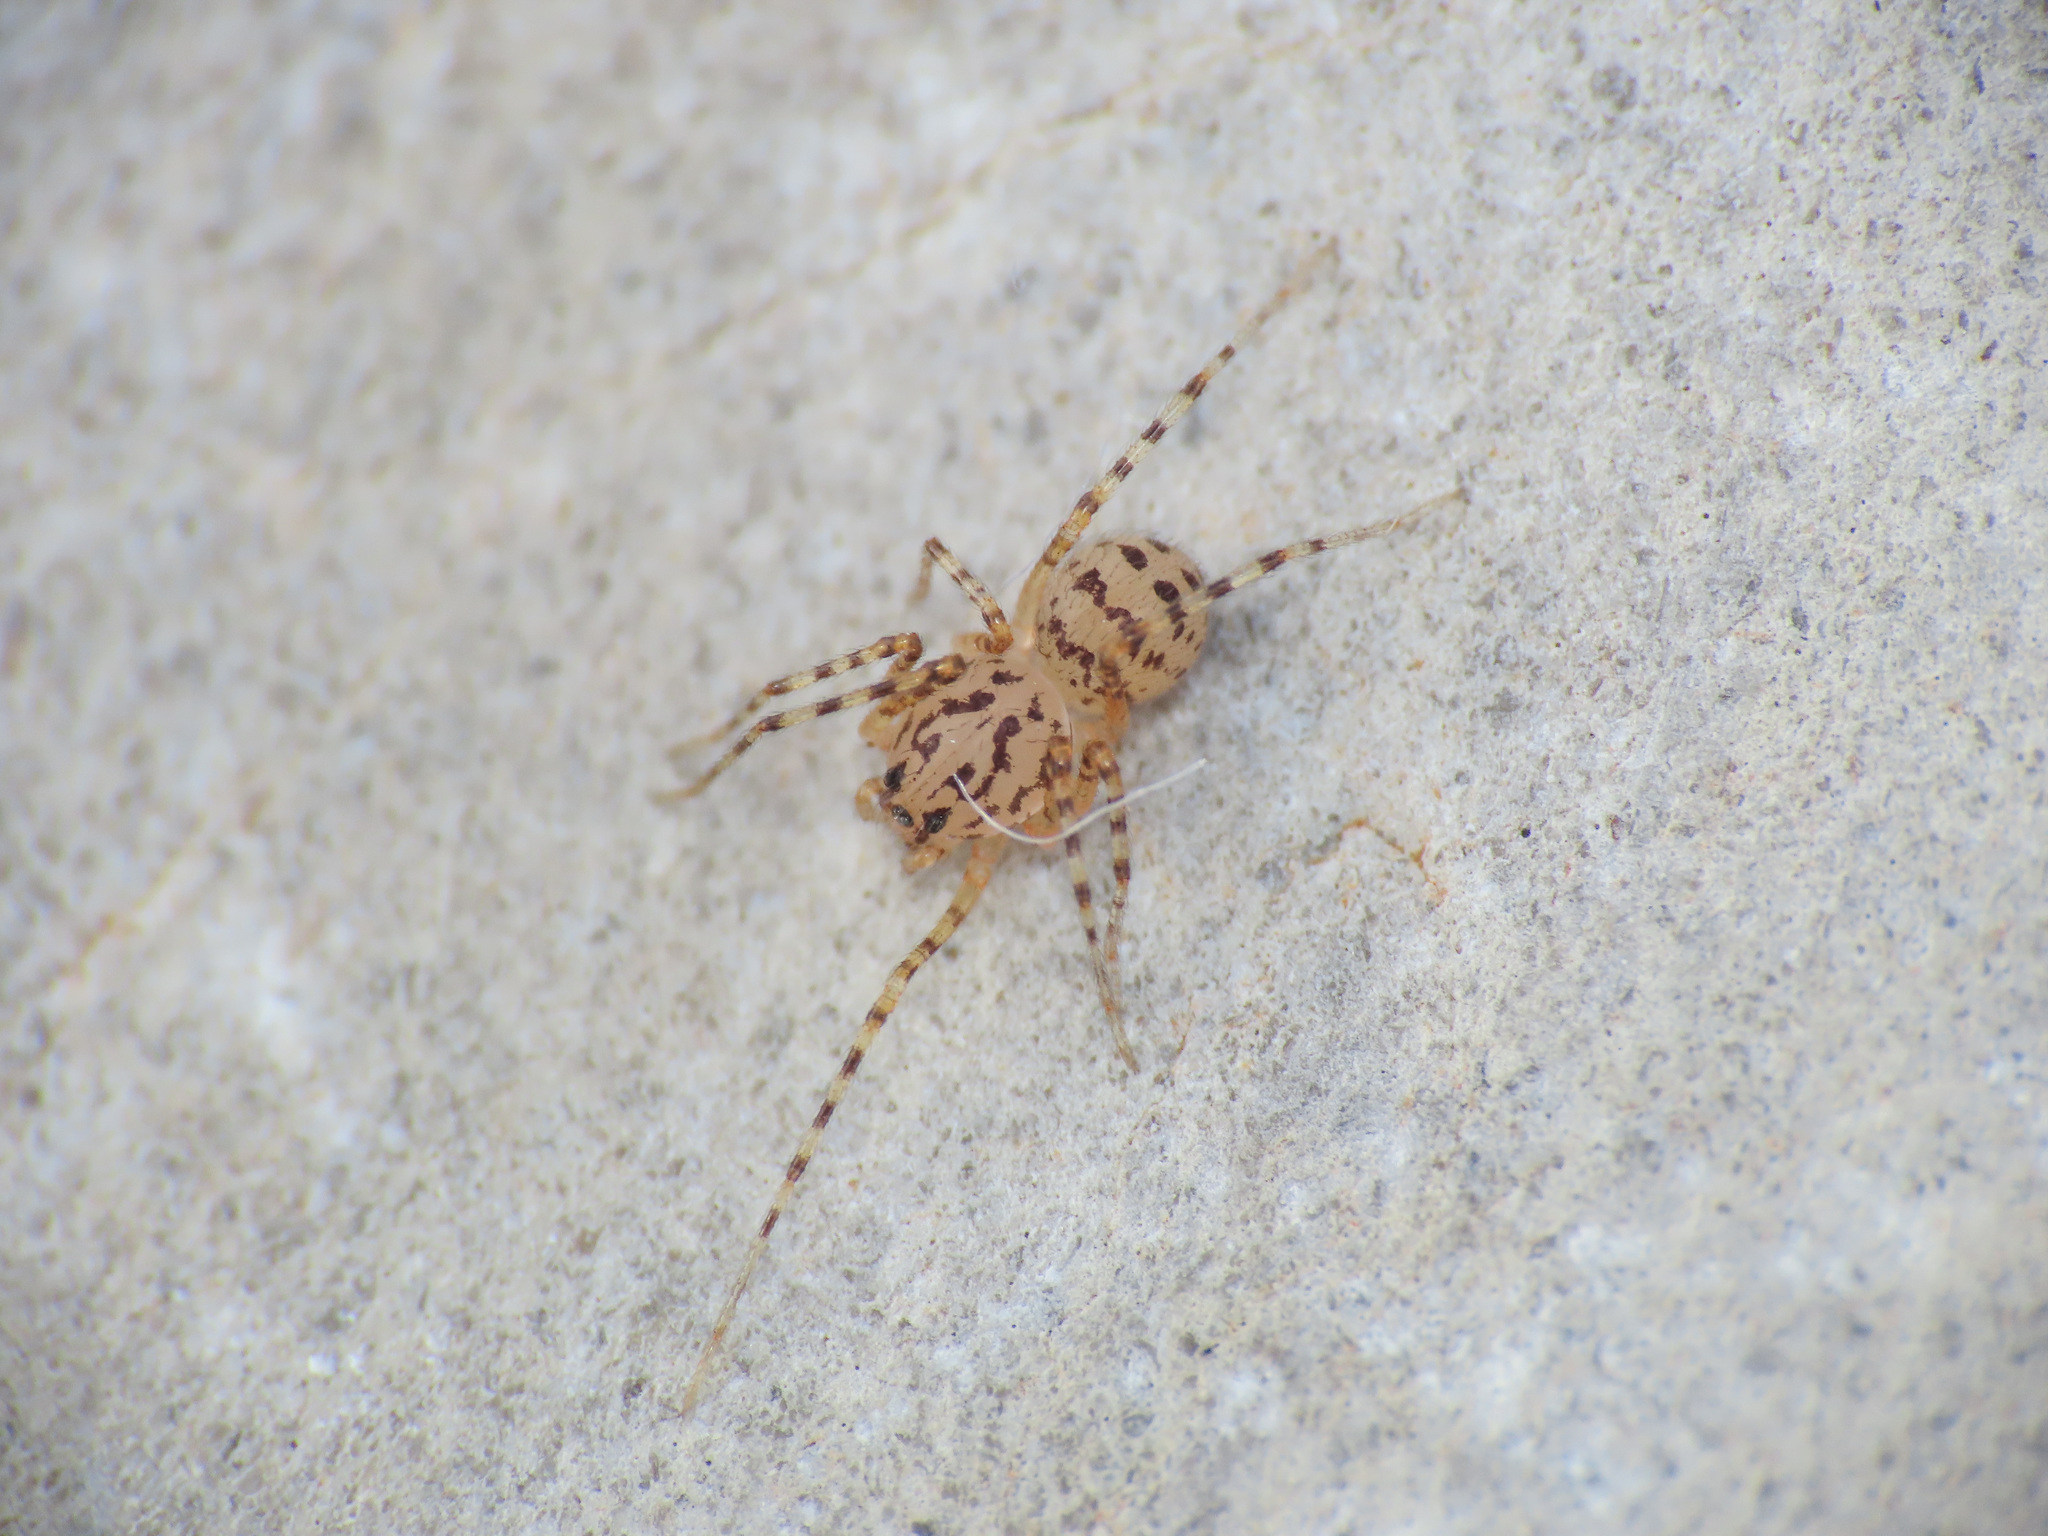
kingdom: Animalia
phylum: Arthropoda
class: Arachnida
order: Araneae
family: Scytodidae
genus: Scytodes
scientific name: Scytodes thoracica
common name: Spitting spider
